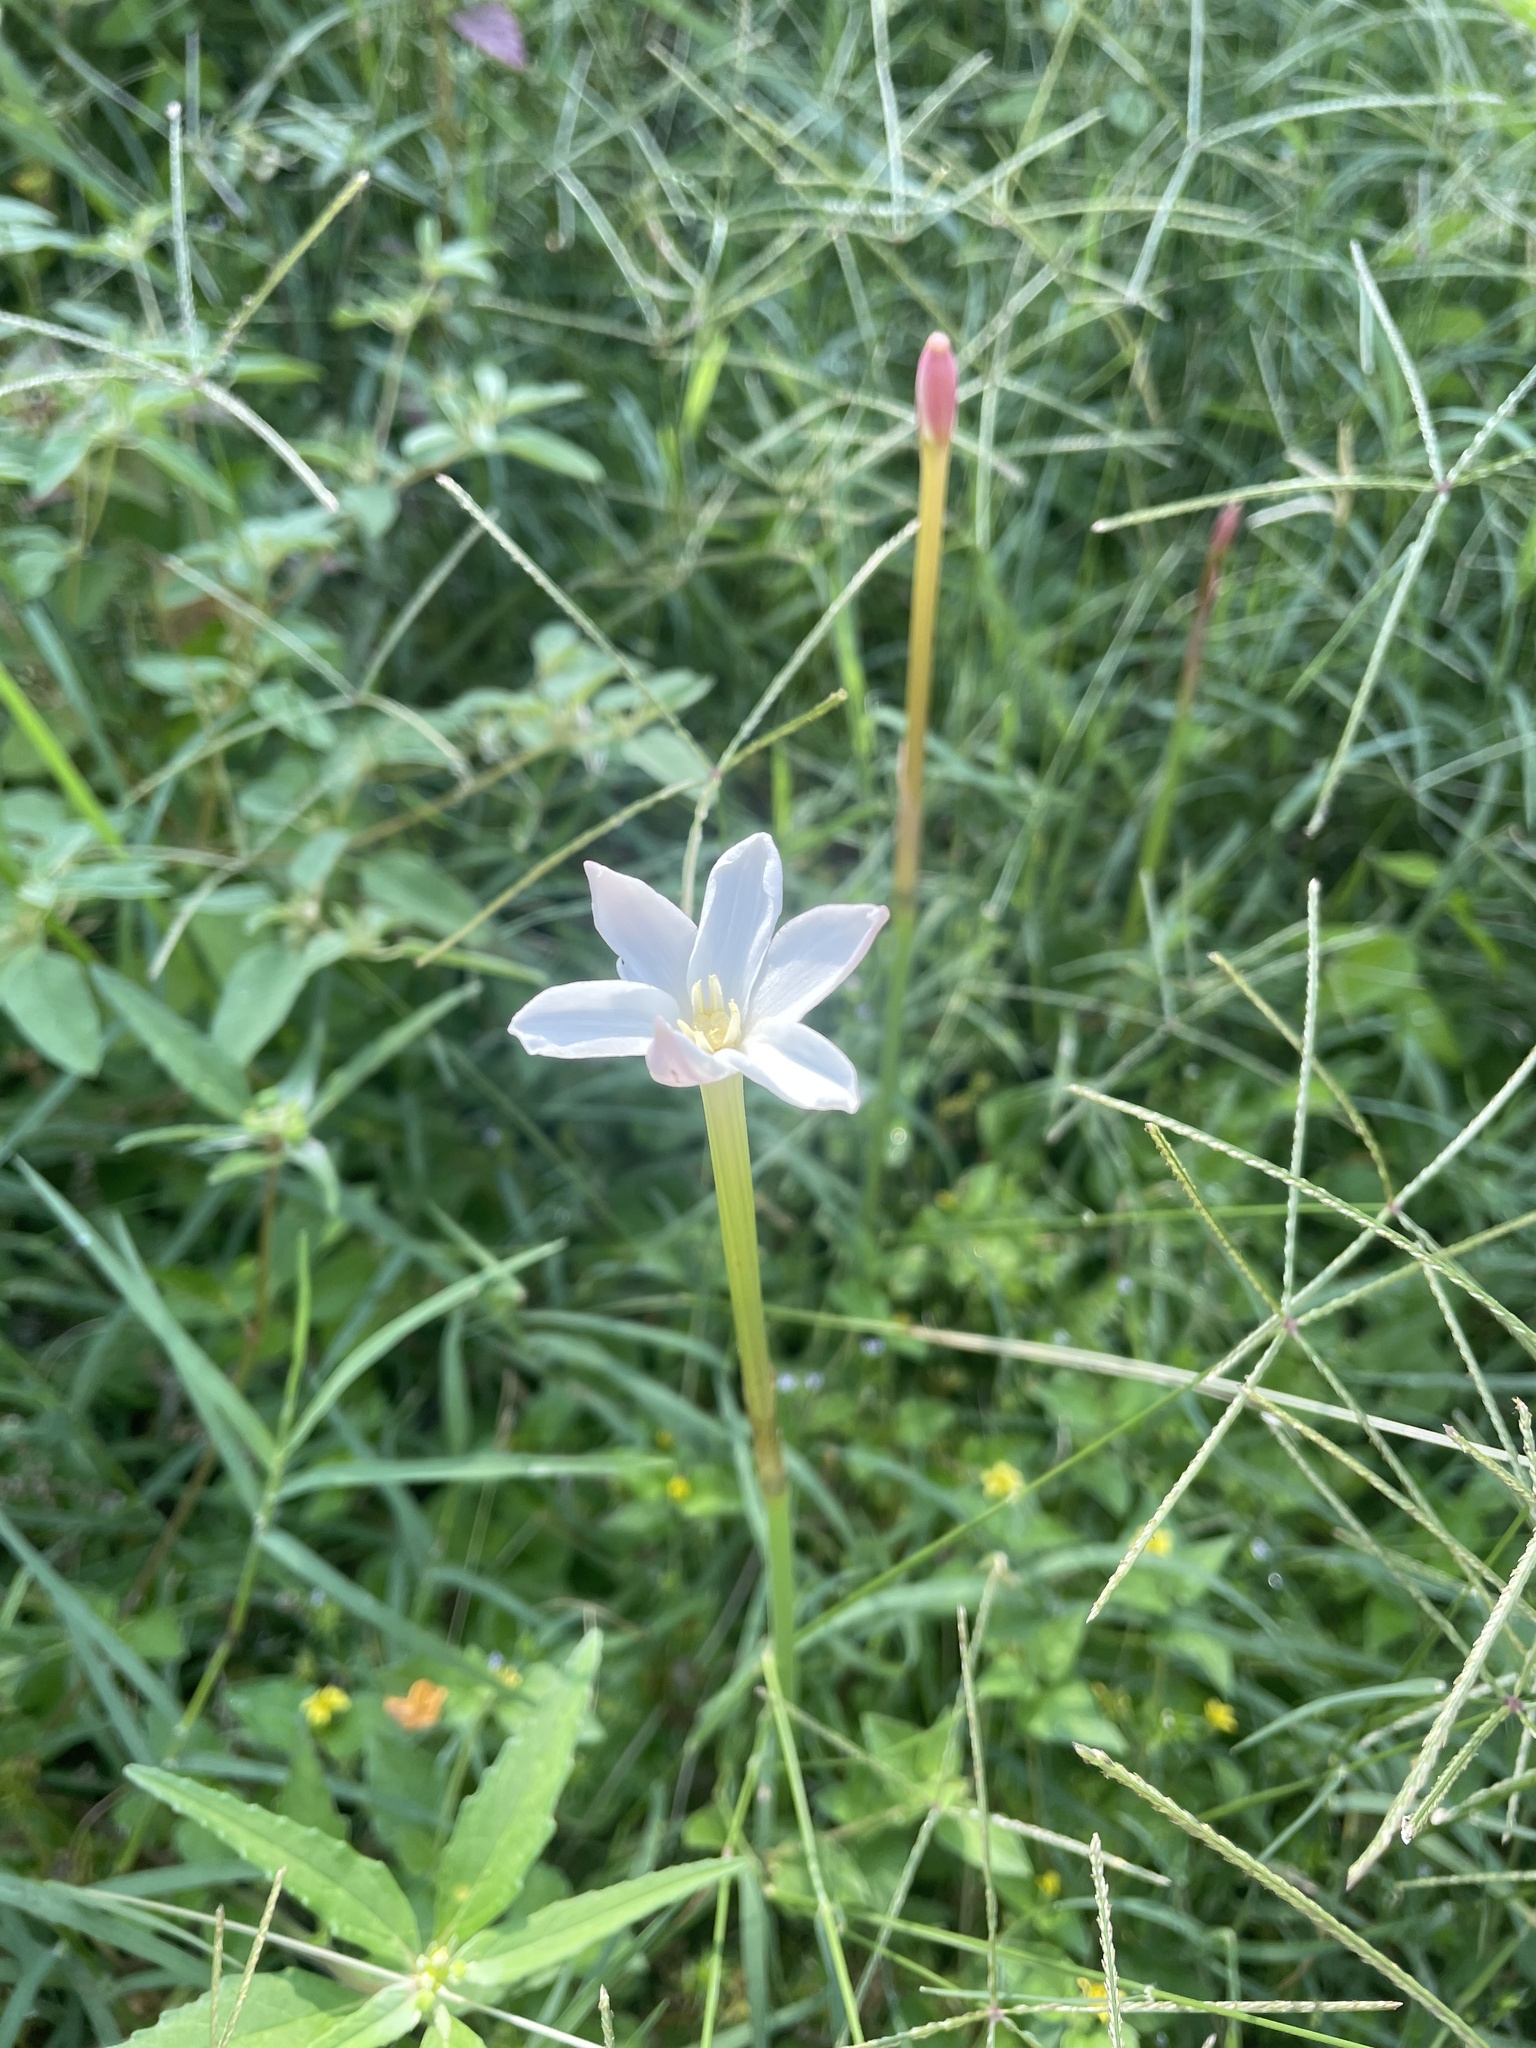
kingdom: Plantae
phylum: Tracheophyta
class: Liliopsida
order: Asparagales
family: Amaryllidaceae
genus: Zephyranthes
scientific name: Zephyranthes chlorosolen
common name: Evening rain-lily
